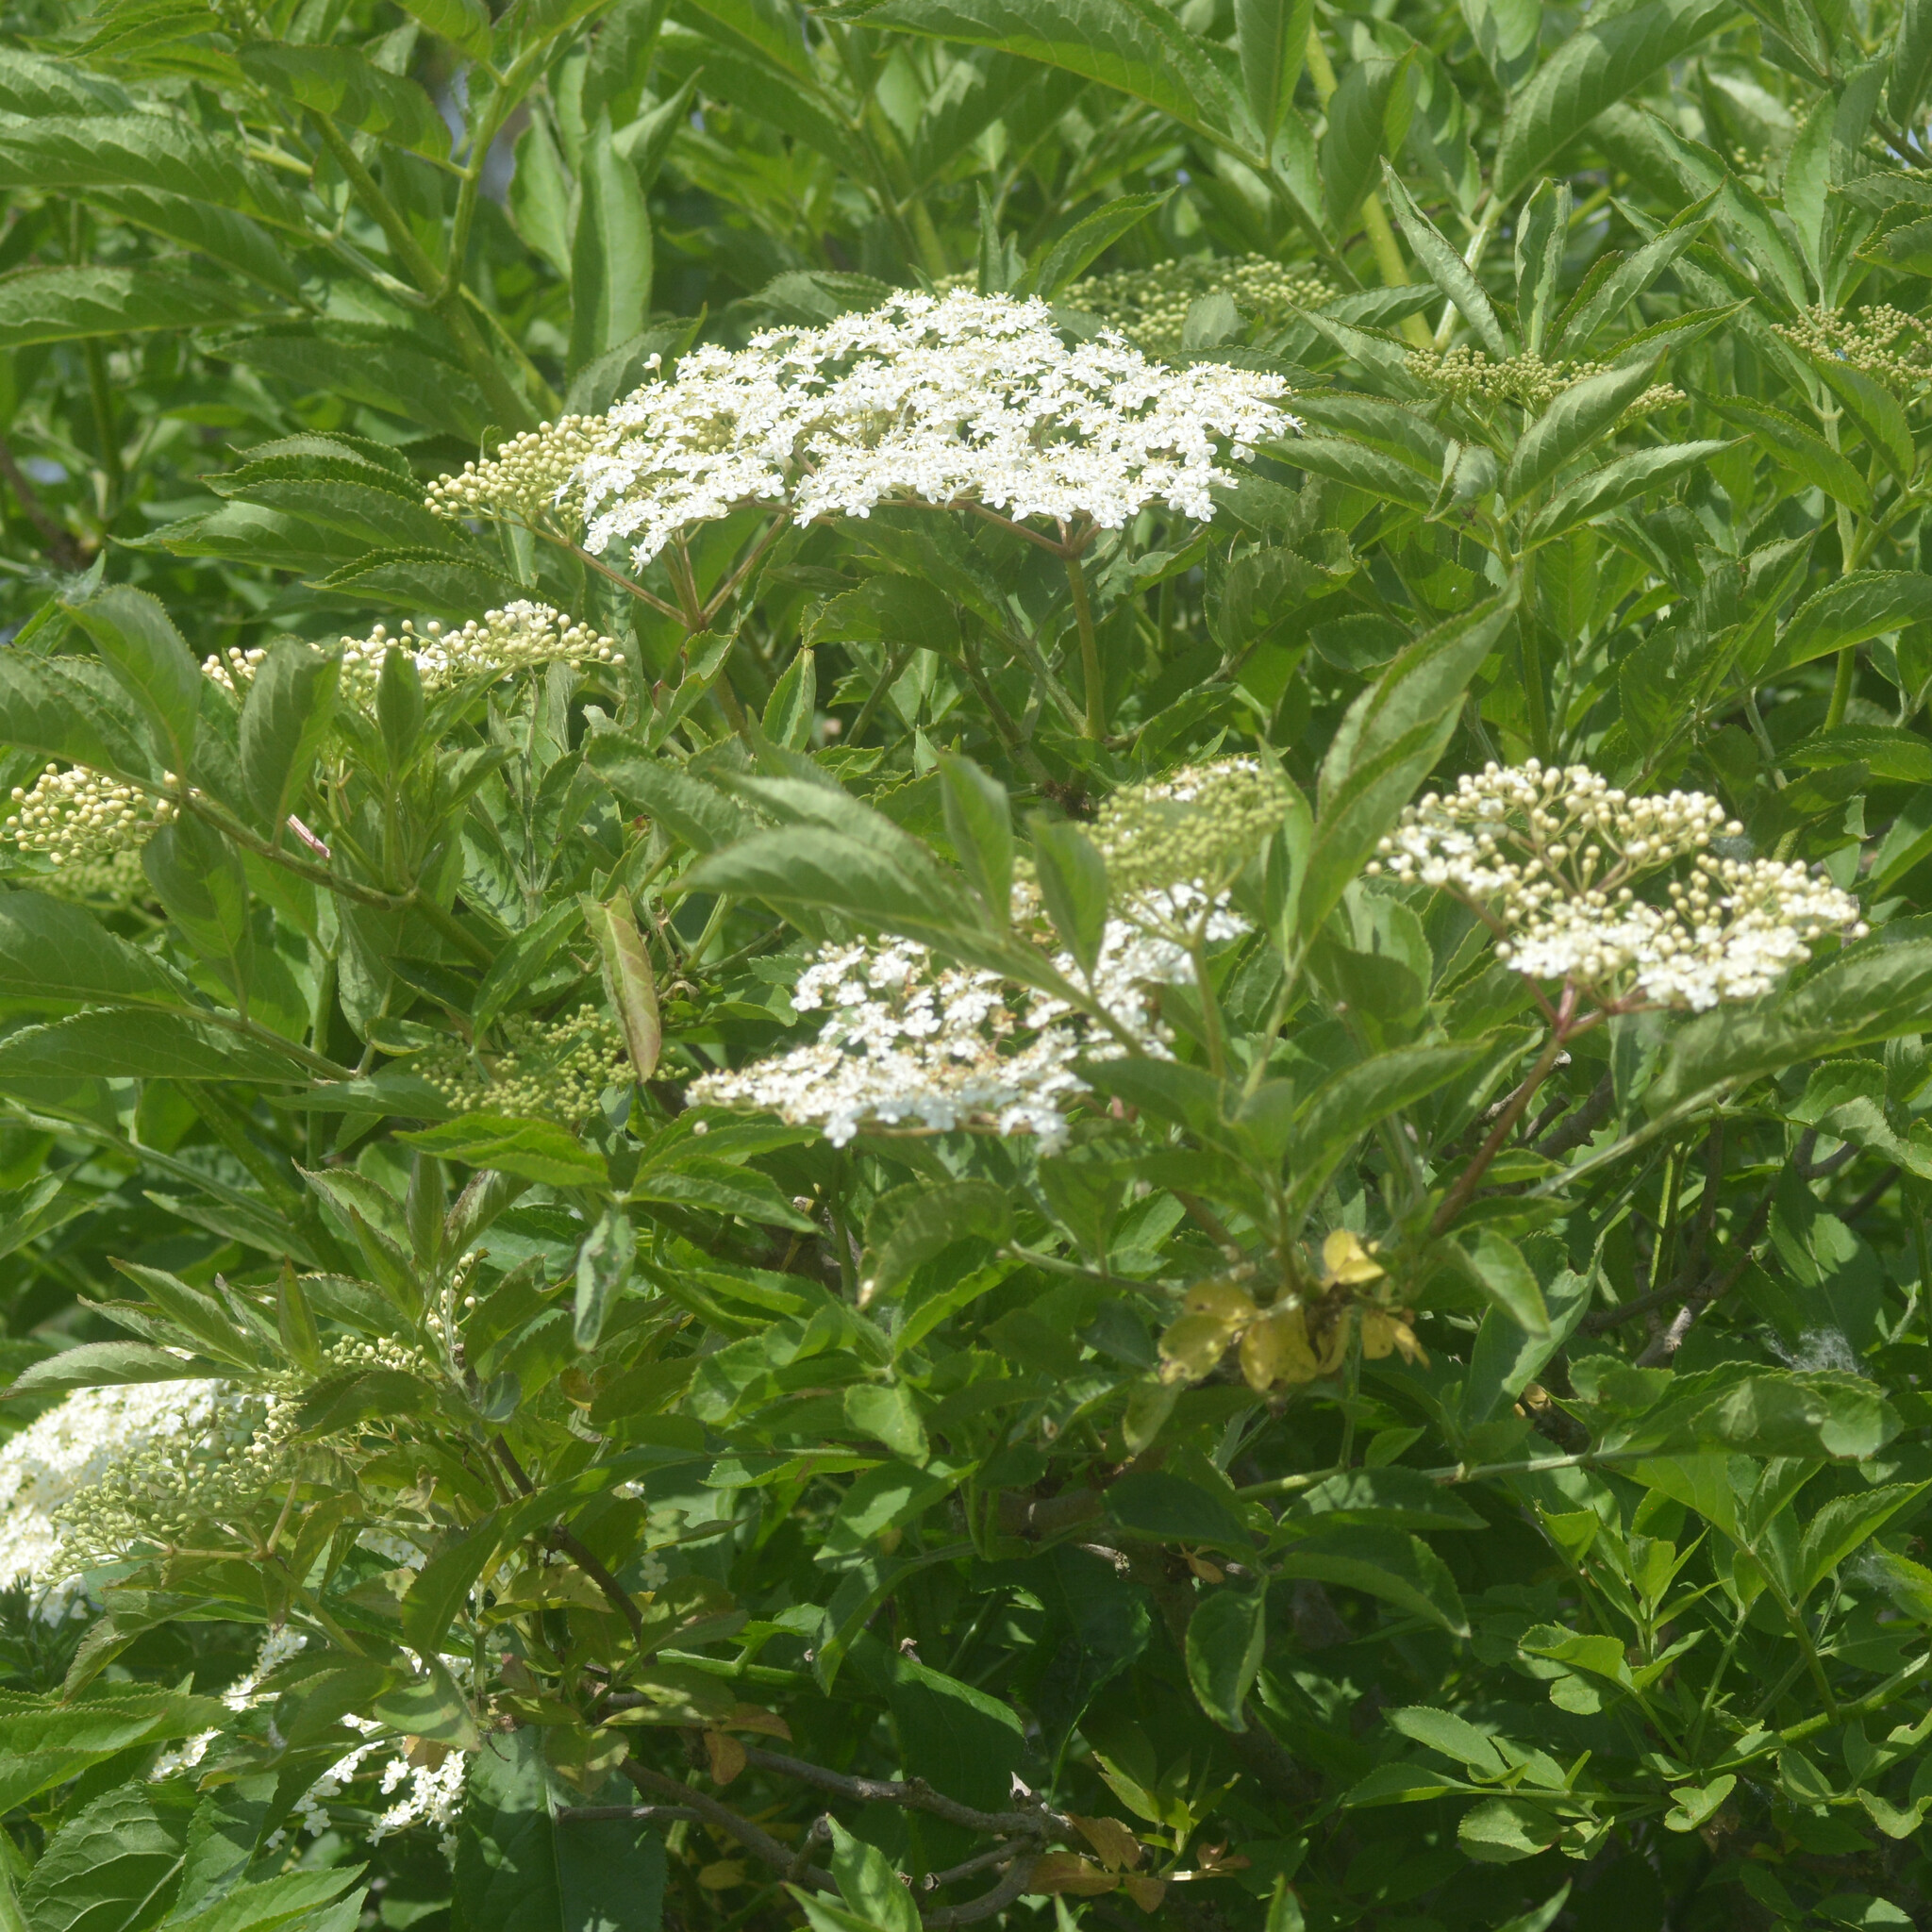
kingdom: Plantae
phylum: Tracheophyta
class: Magnoliopsida
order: Dipsacales
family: Viburnaceae
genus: Sambucus
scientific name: Sambucus nigra
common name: Elder
